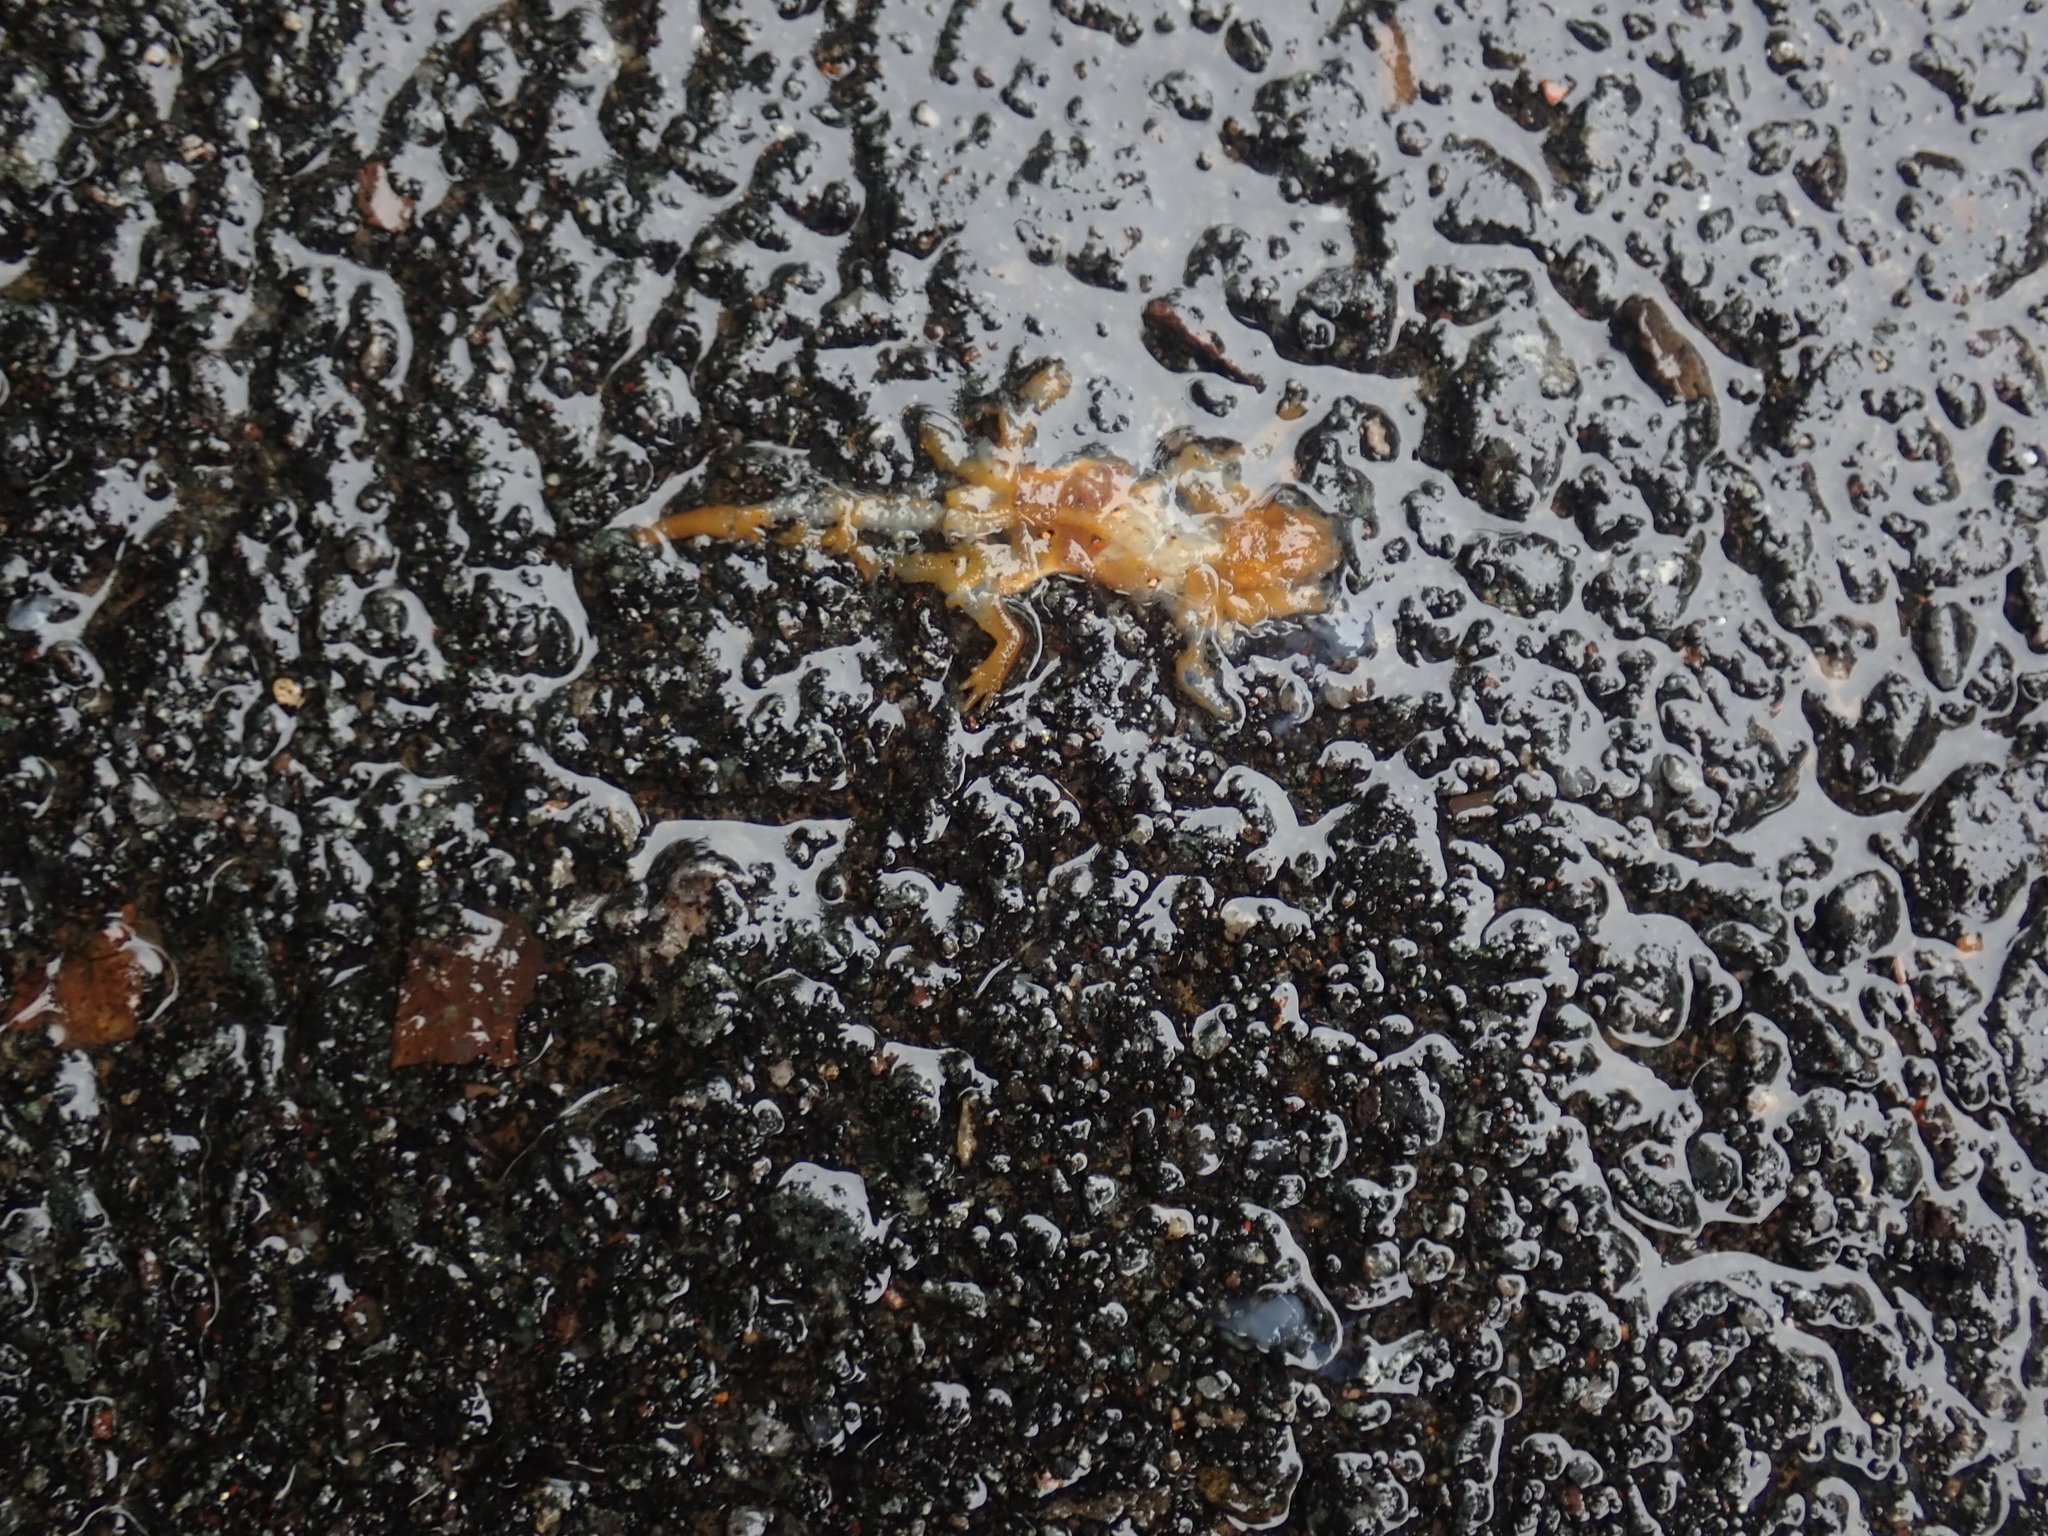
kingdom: Animalia
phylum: Chordata
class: Amphibia
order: Caudata
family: Salamandridae
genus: Notophthalmus
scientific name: Notophthalmus viridescens
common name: Eastern newt
